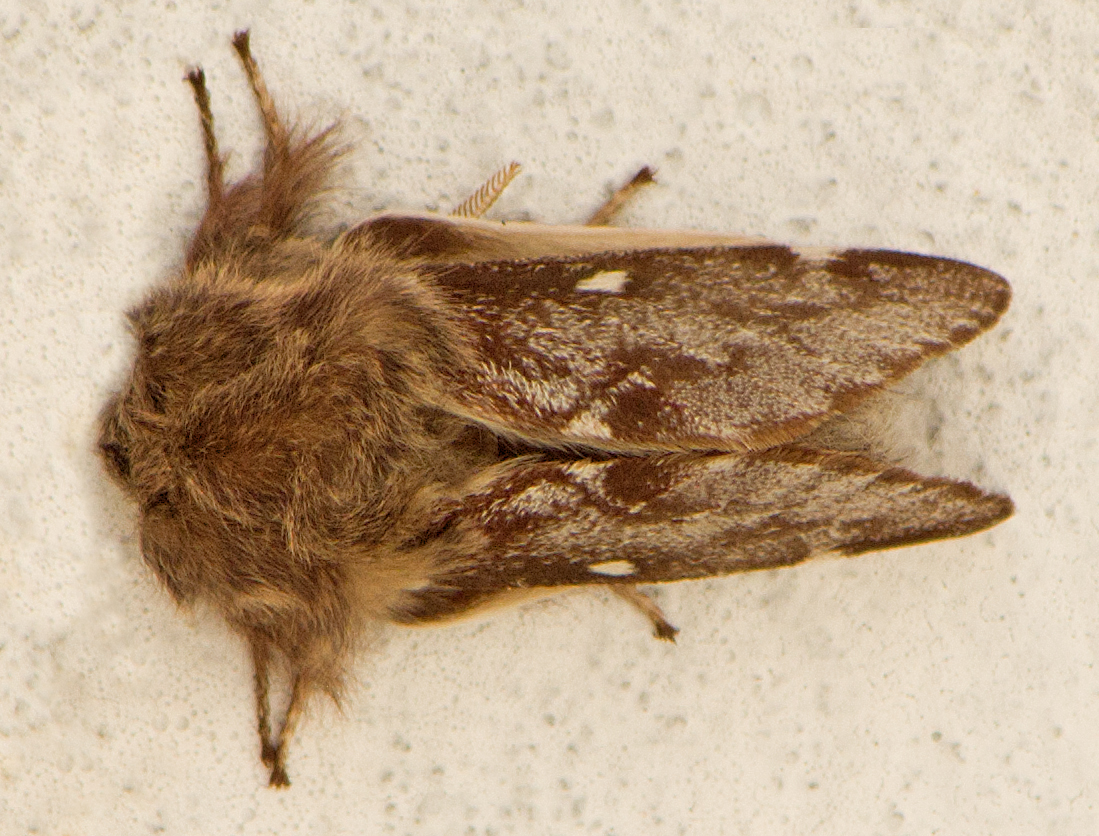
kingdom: Animalia
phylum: Arthropoda
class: Insecta
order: Lepidoptera
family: Lasiocampidae
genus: Eriogaster
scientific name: Eriogaster lanestris
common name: Small eggar
